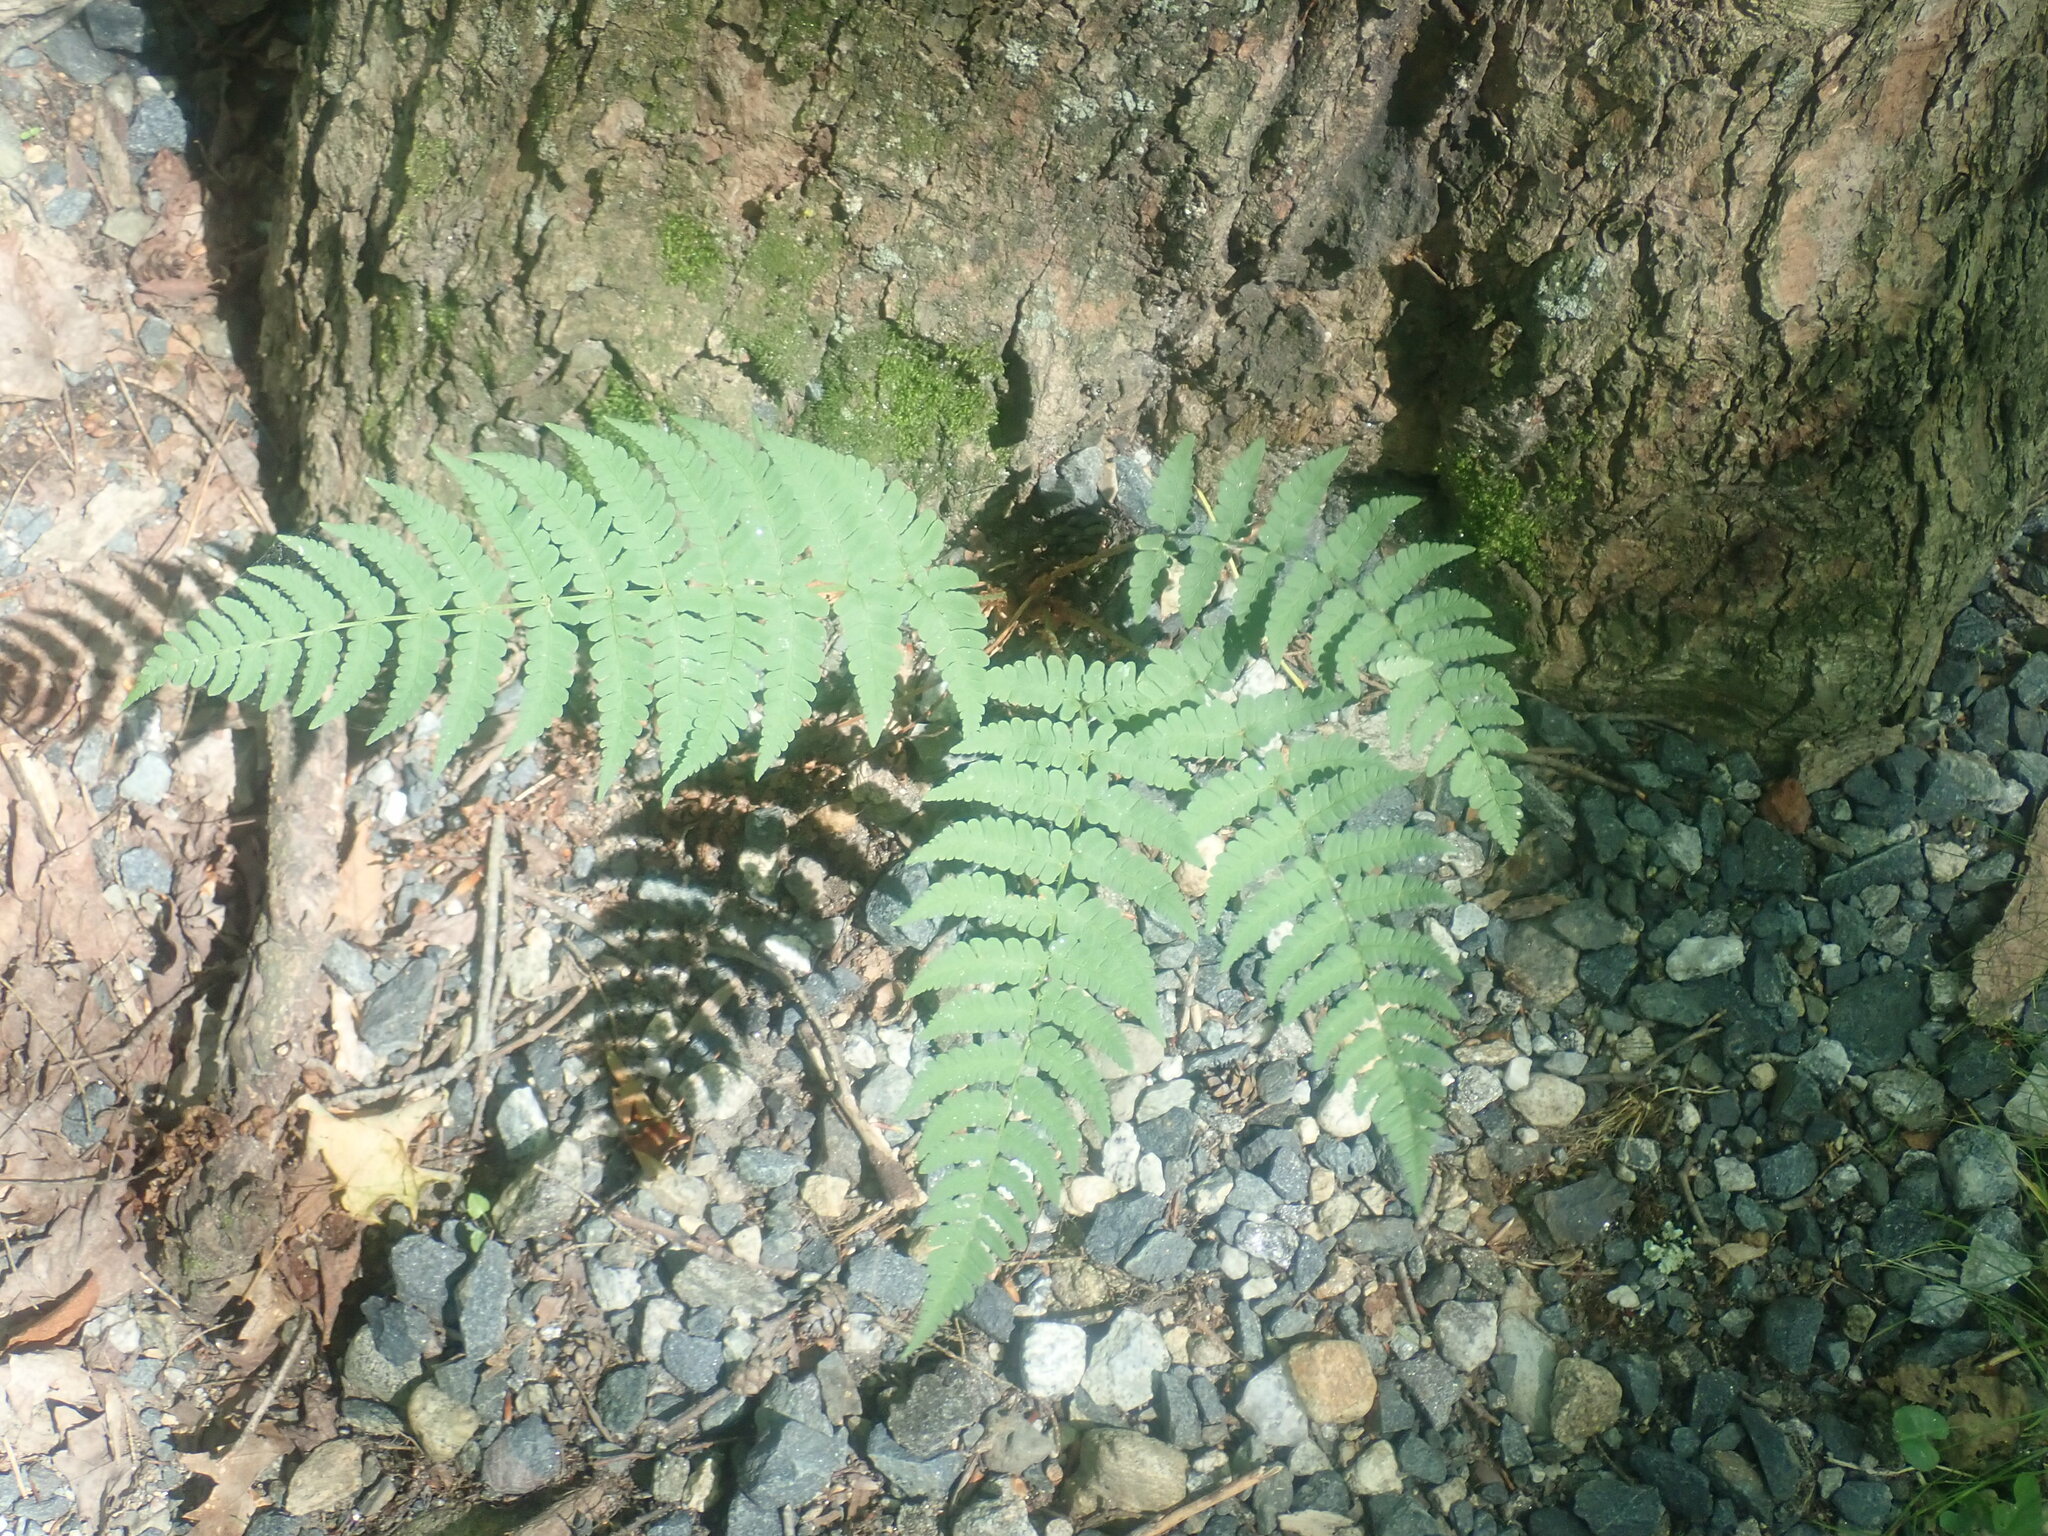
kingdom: Plantae
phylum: Tracheophyta
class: Polypodiopsida
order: Polypodiales
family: Dryopteridaceae
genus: Dryopteris
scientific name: Dryopteris marginalis
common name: Marginal wood fern
